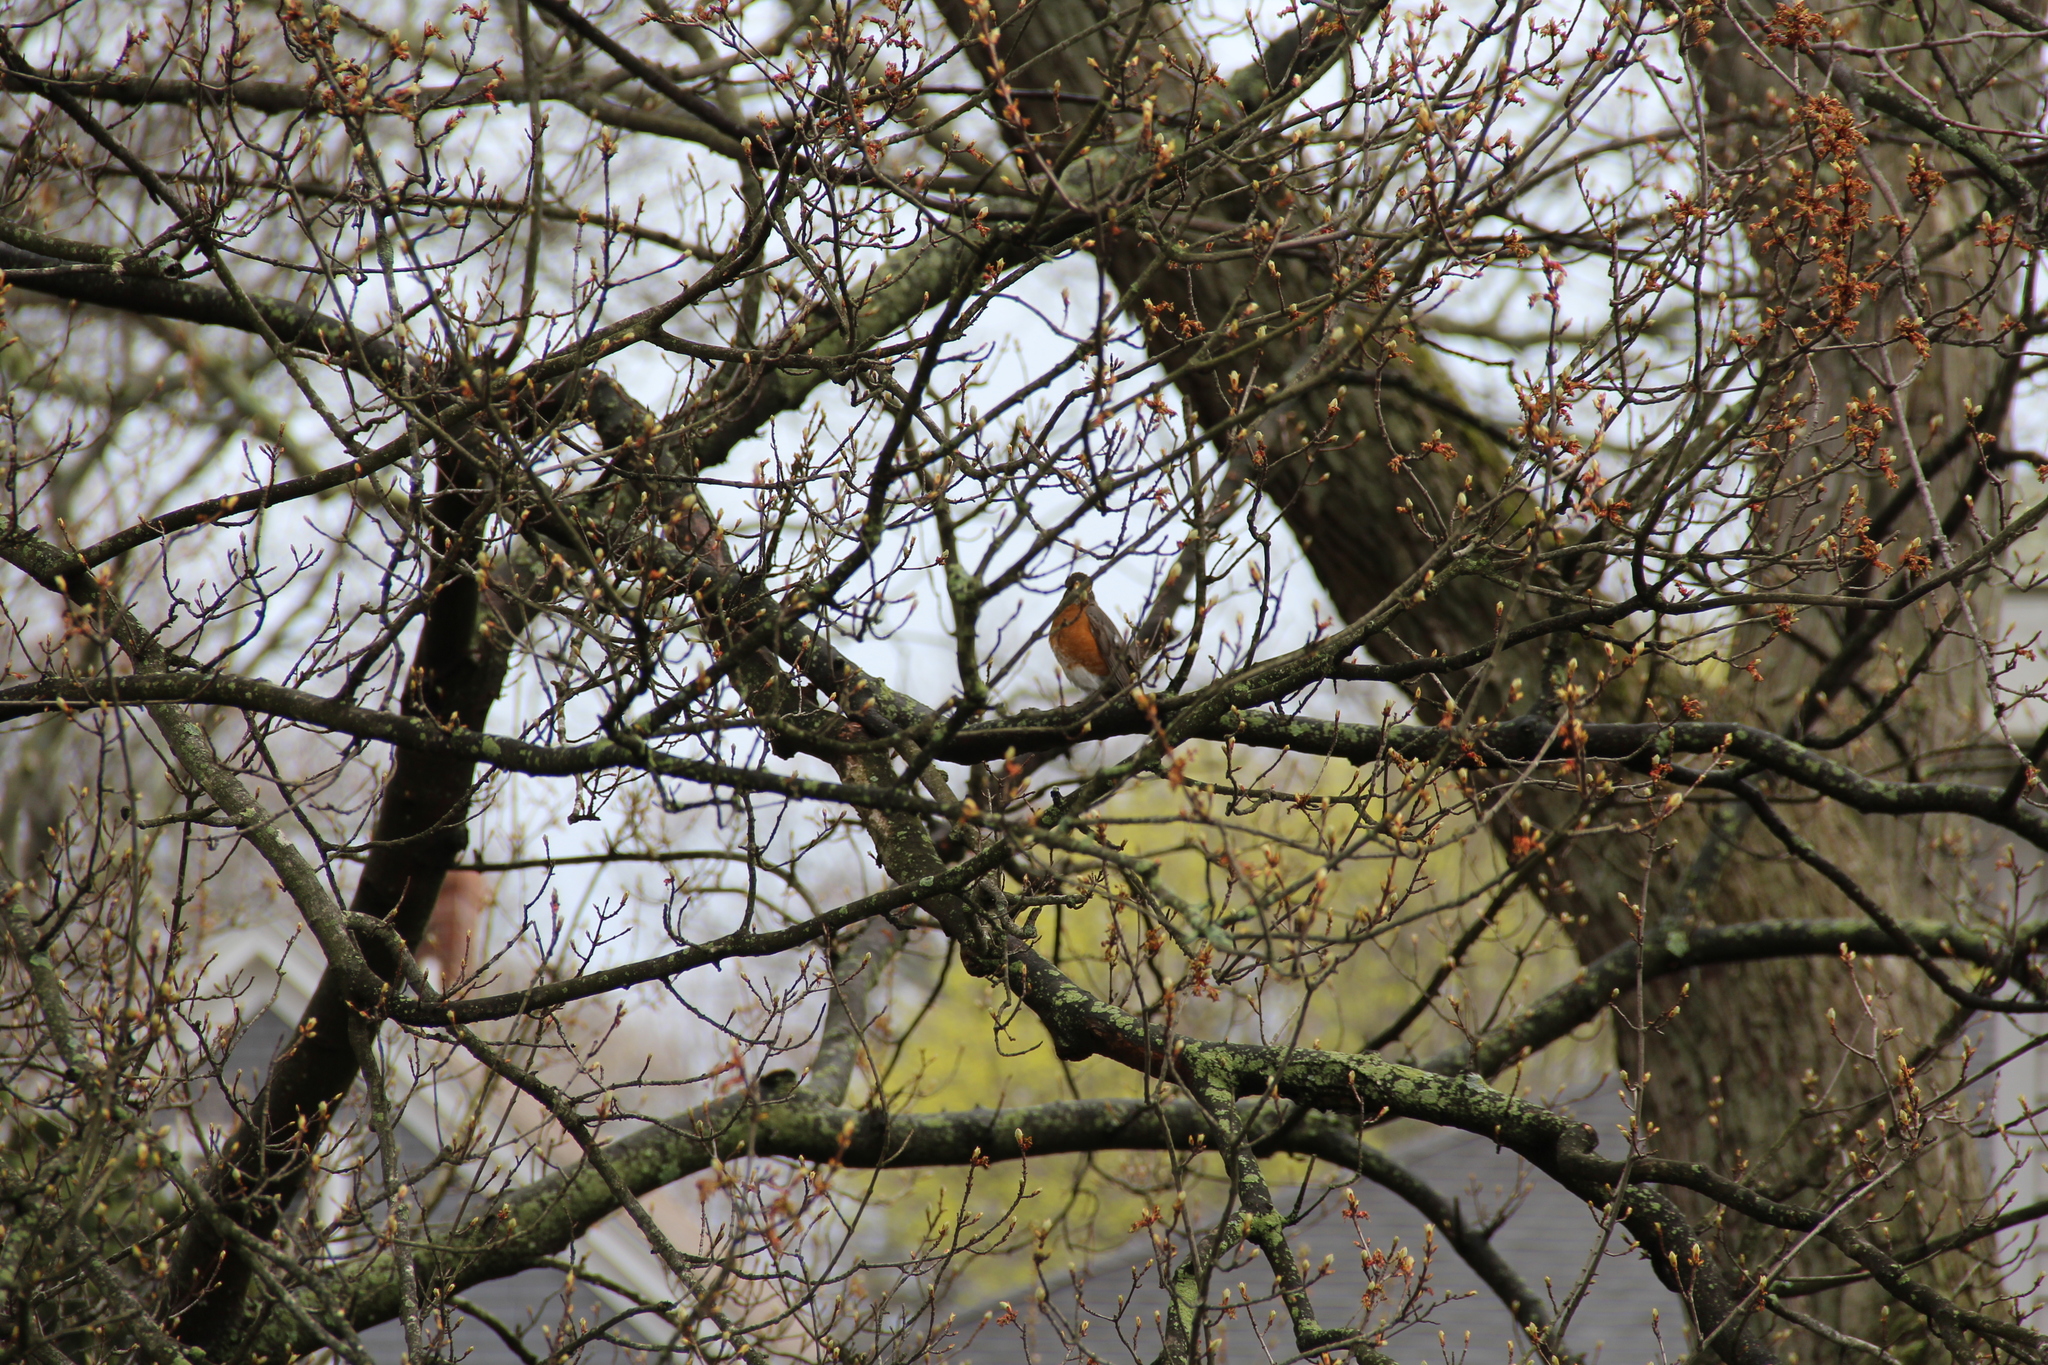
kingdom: Animalia
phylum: Chordata
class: Aves
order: Passeriformes
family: Turdidae
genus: Turdus
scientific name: Turdus migratorius
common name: American robin
